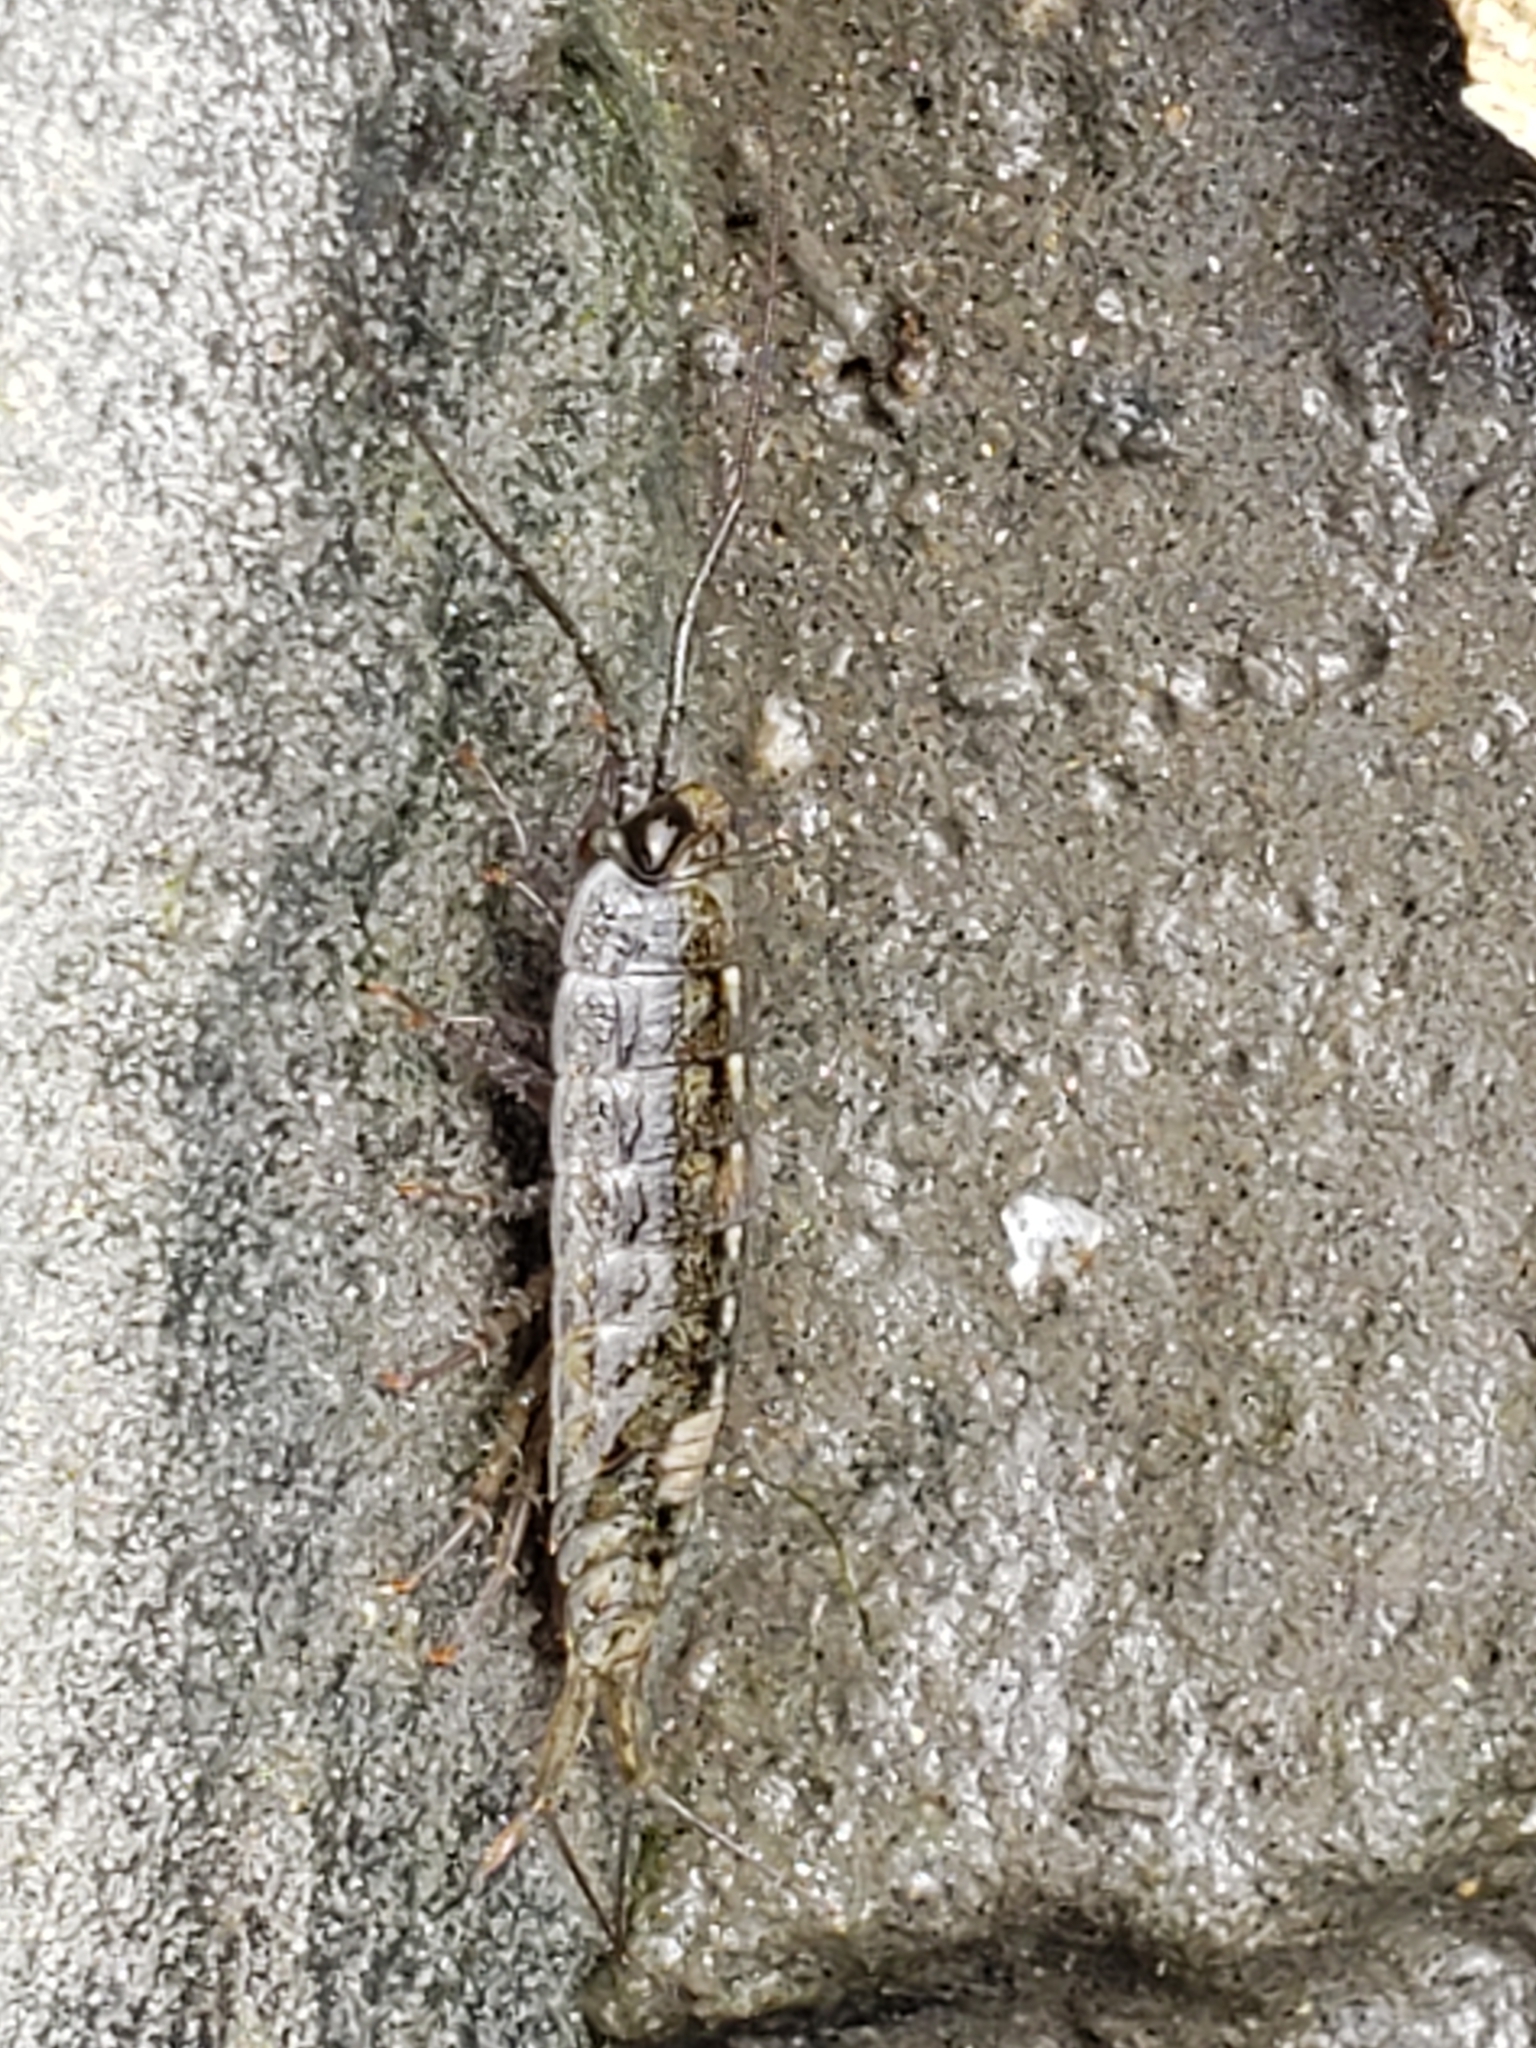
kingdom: Animalia
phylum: Arthropoda
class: Malacostraca
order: Isopoda
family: Ligiidae
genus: Ligia
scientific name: Ligia occidentalis
